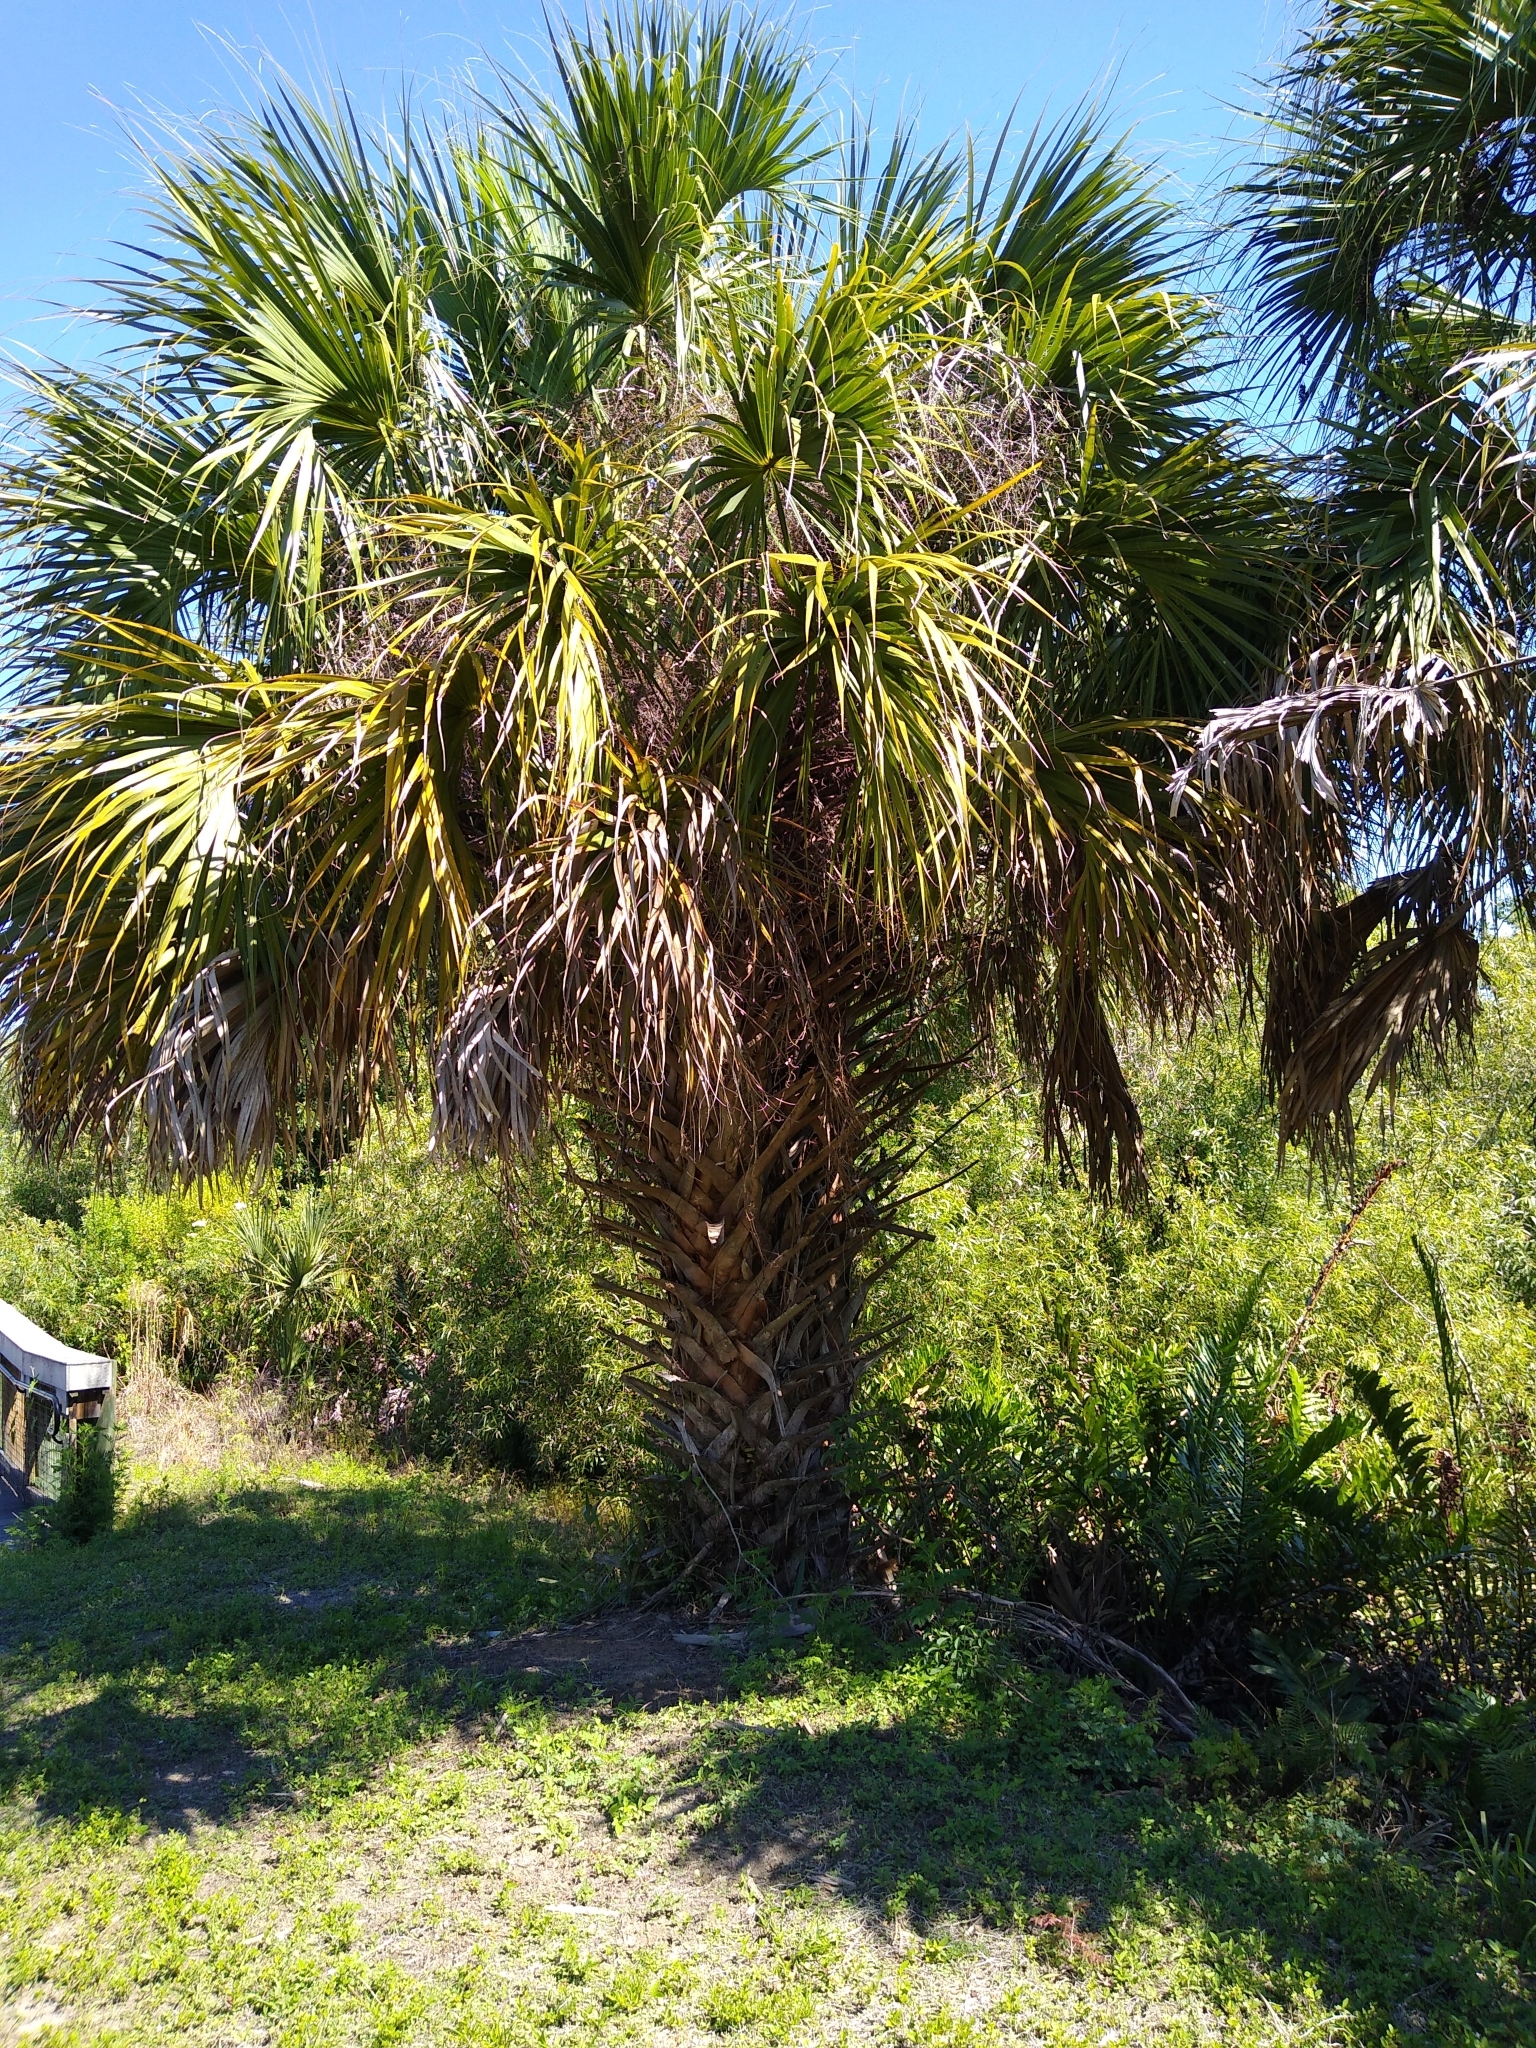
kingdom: Plantae
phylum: Tracheophyta
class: Liliopsida
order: Arecales
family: Arecaceae
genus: Sabal
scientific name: Sabal palmetto
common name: Blue palmetto
